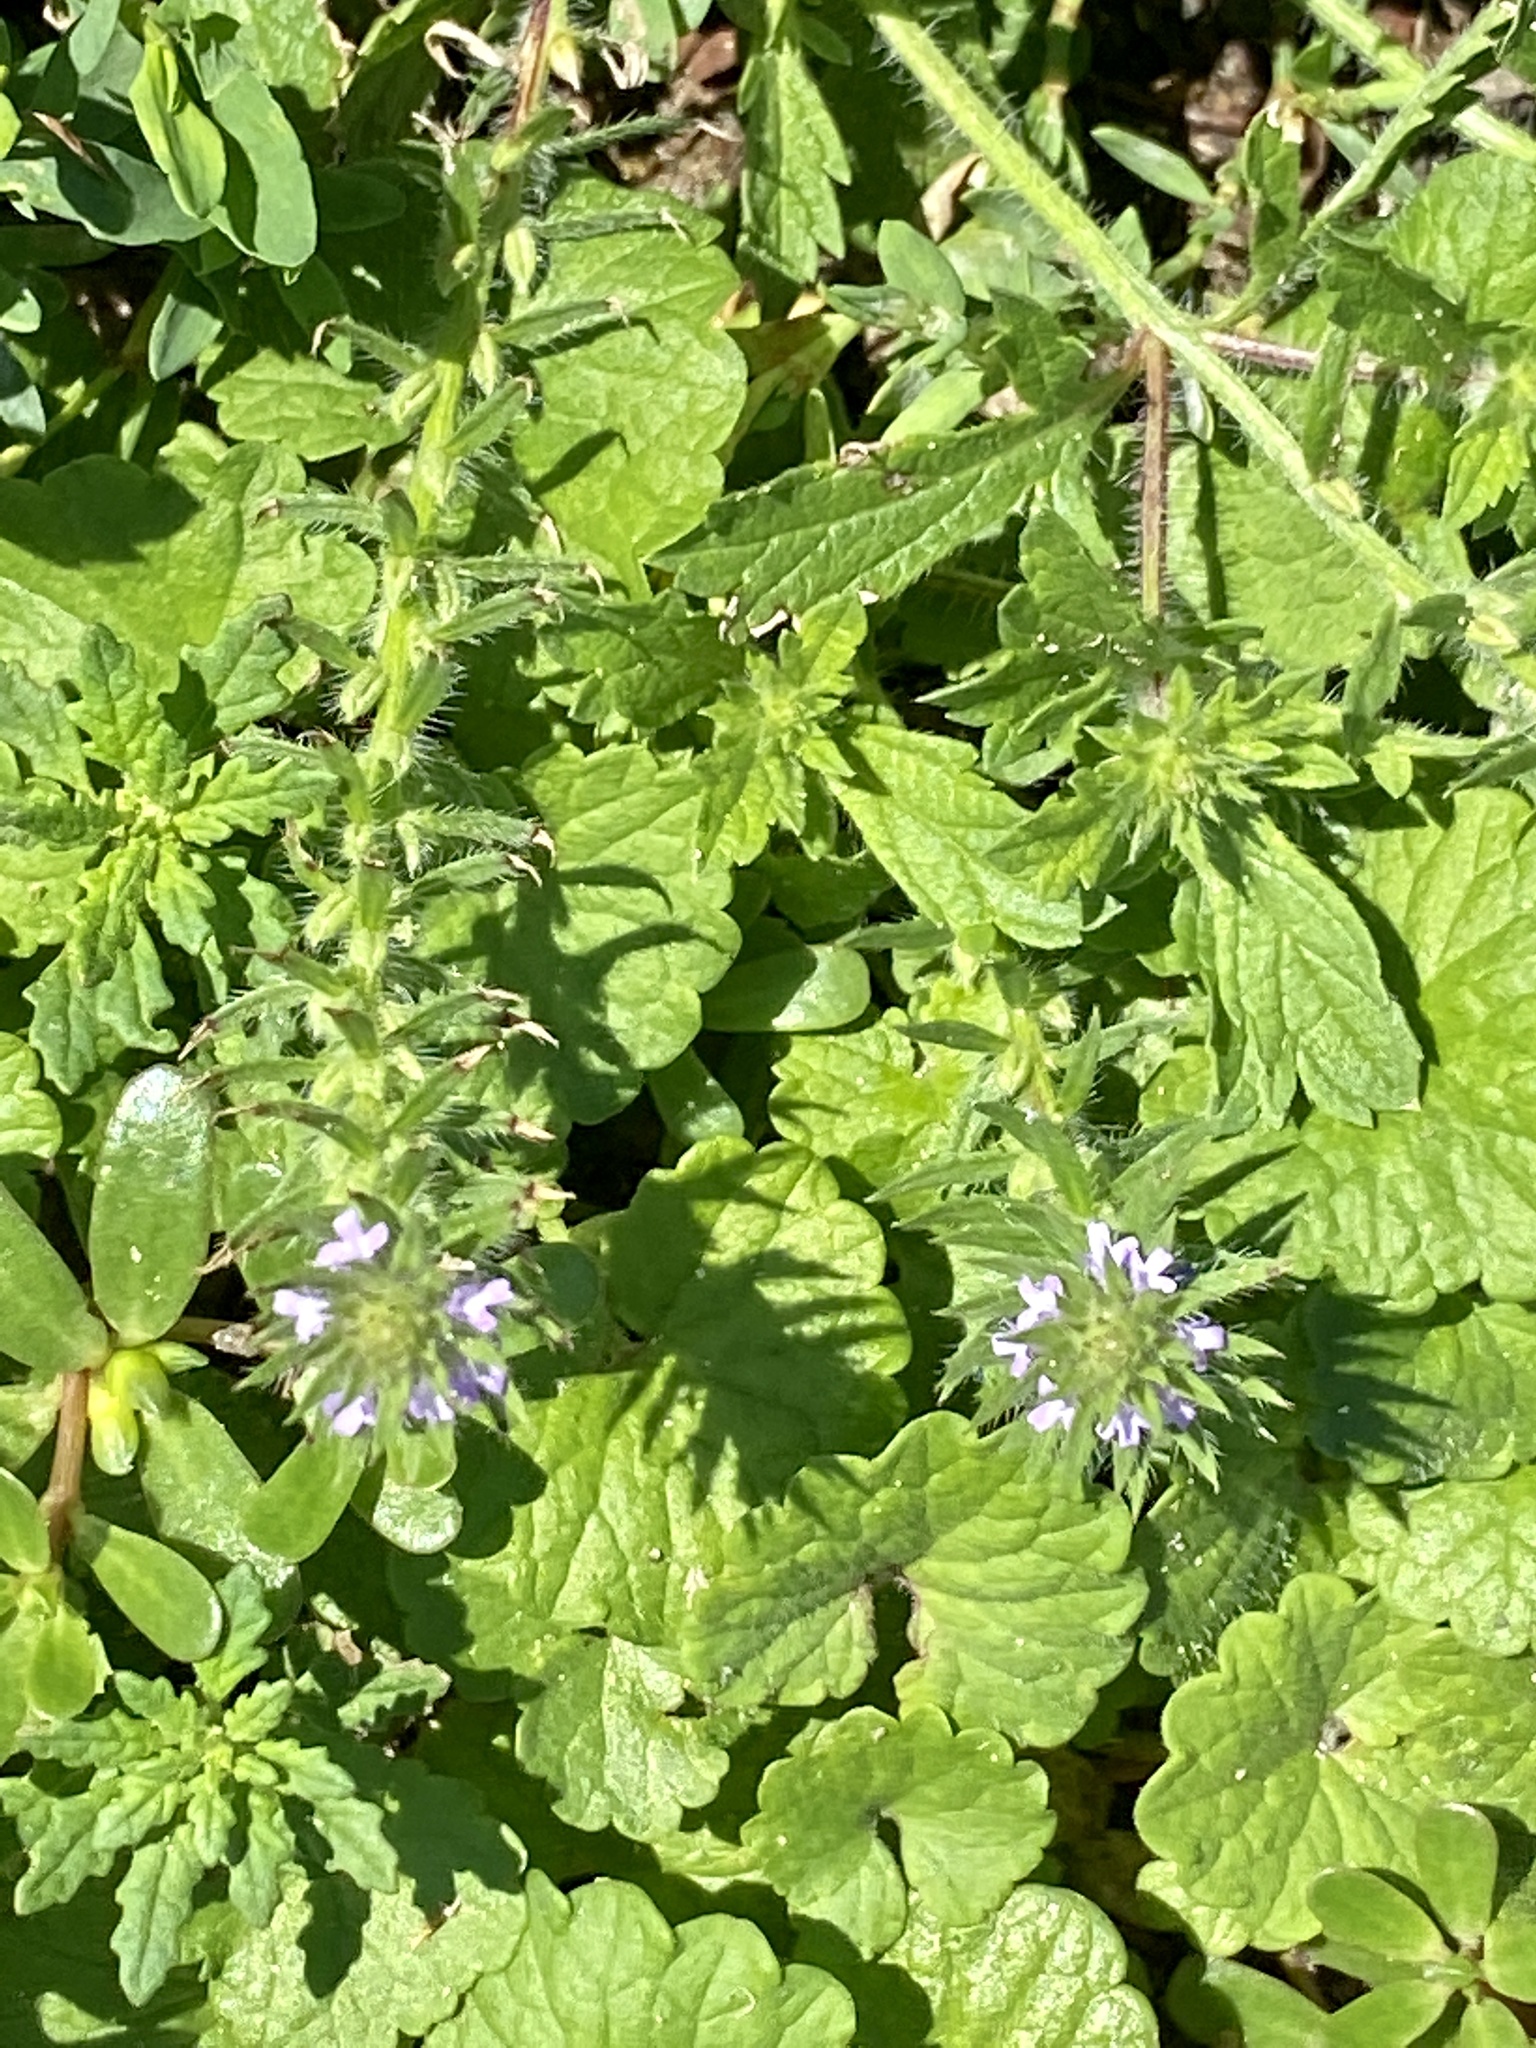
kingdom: Plantae
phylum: Tracheophyta
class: Magnoliopsida
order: Lamiales
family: Verbenaceae
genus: Verbena
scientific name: Verbena bracteata
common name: Bracted vervain
